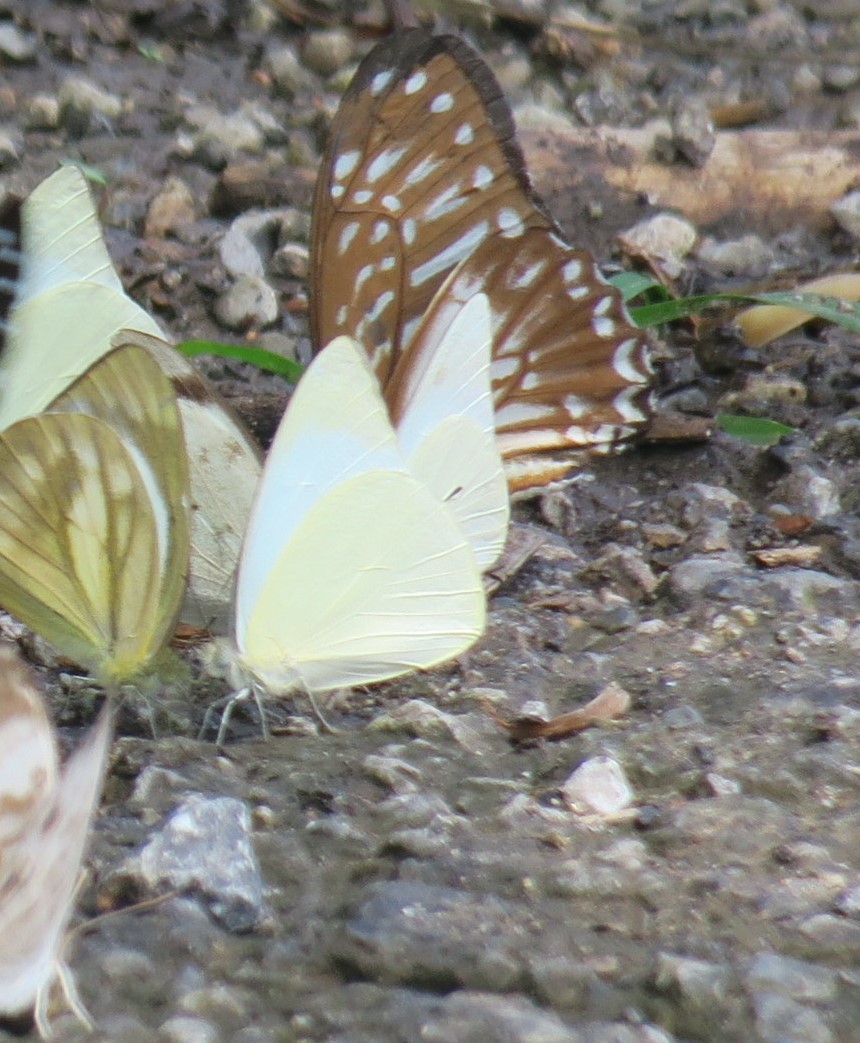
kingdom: Animalia
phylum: Arthropoda
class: Insecta
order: Lepidoptera
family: Pieridae
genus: Appias
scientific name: Appias albina
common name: Common albatross
